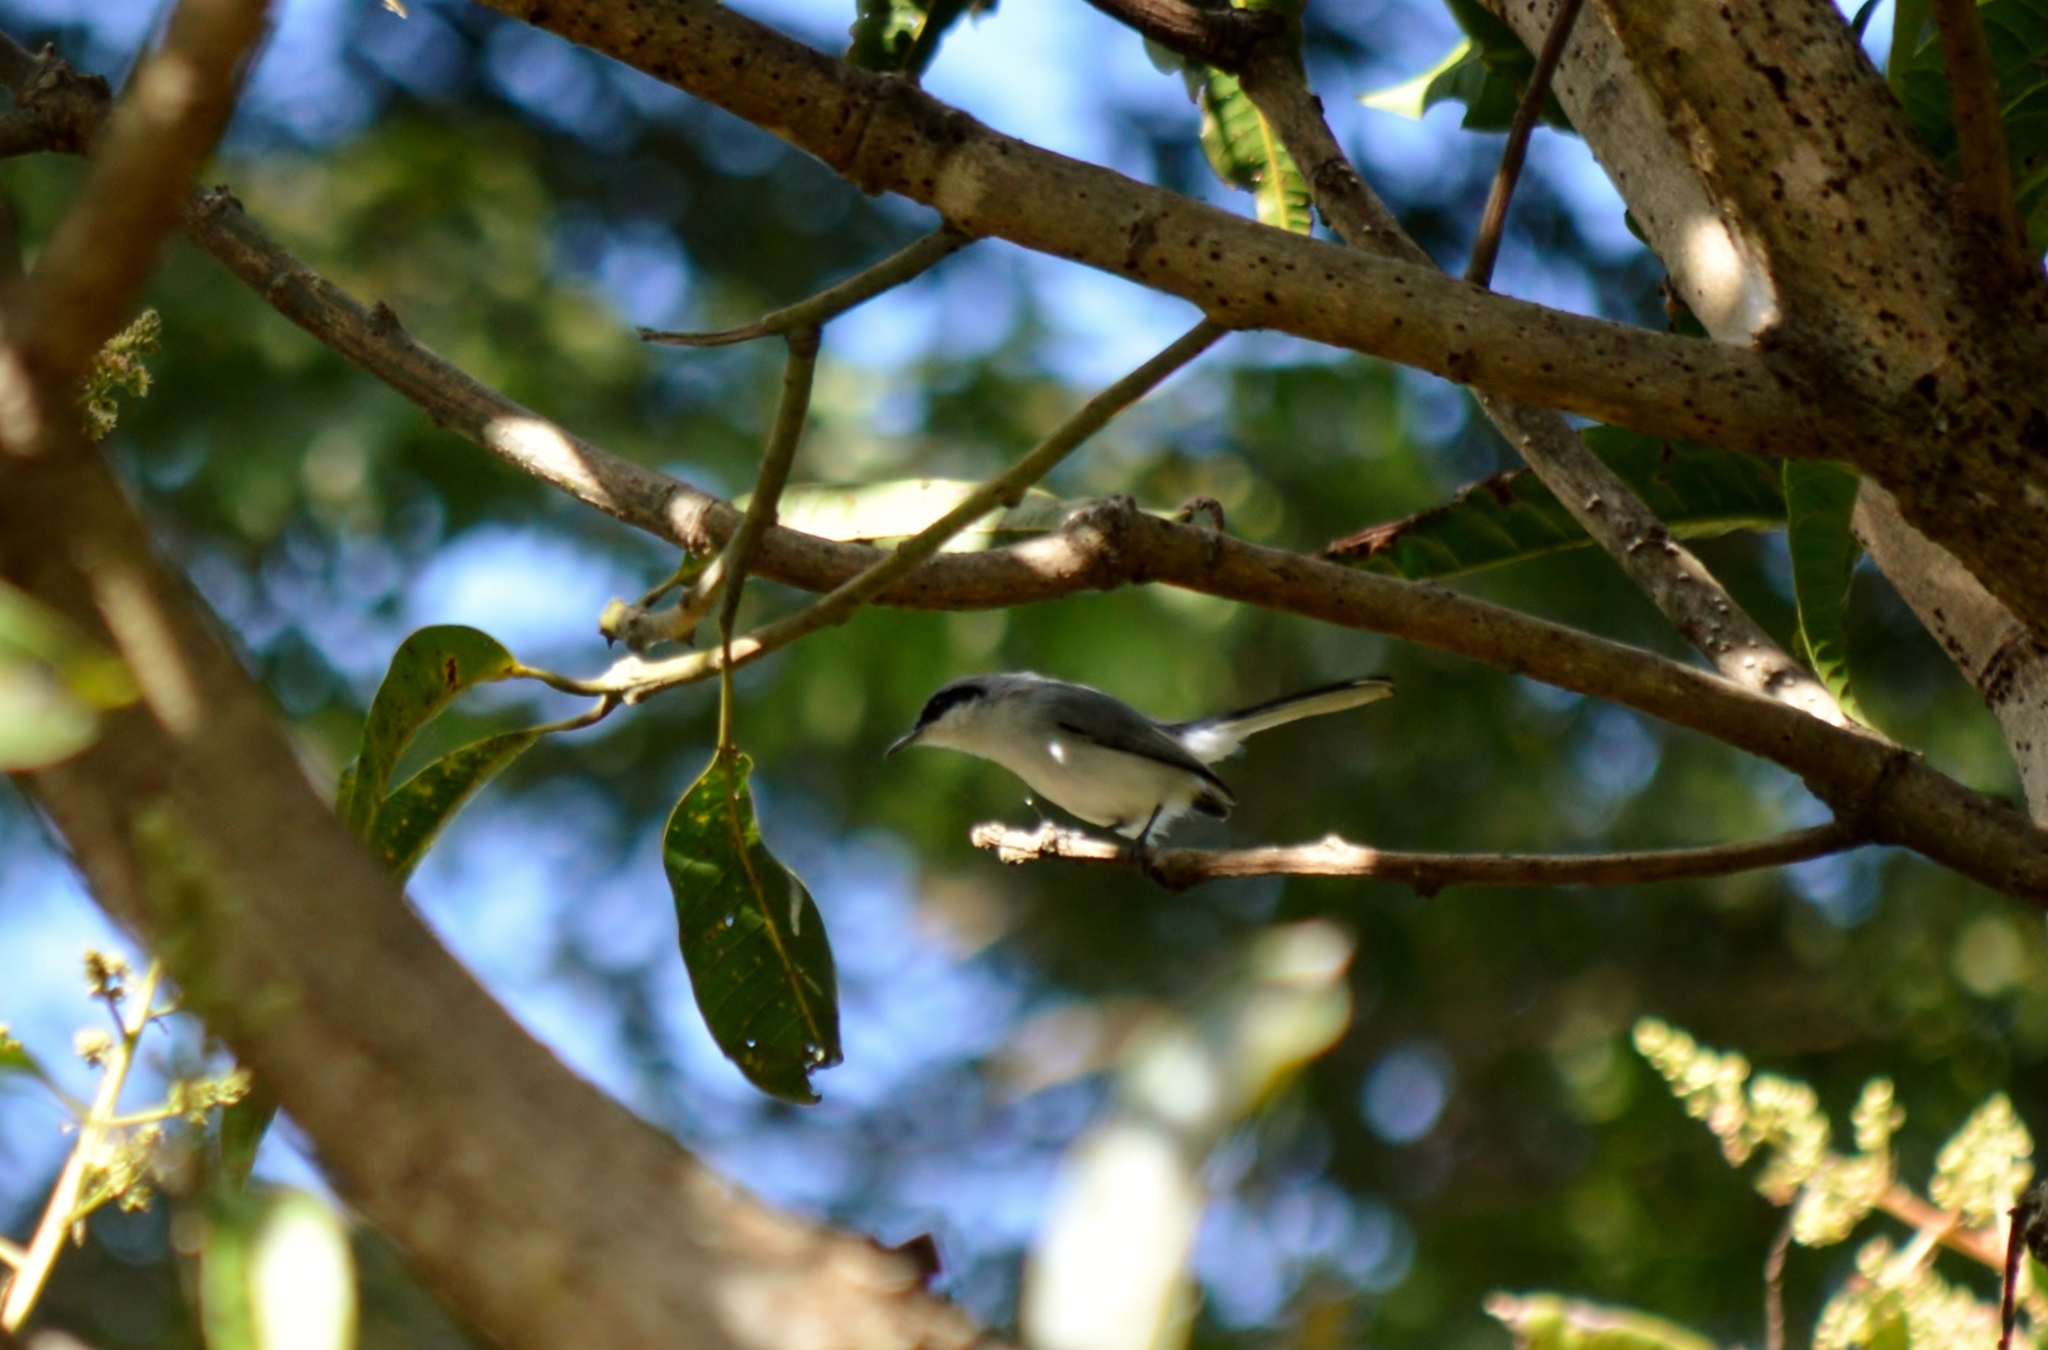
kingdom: Animalia
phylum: Chordata
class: Aves
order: Passeriformes
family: Polioptilidae
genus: Polioptila
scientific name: Polioptila dumicola
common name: Masked gnatcatcher
